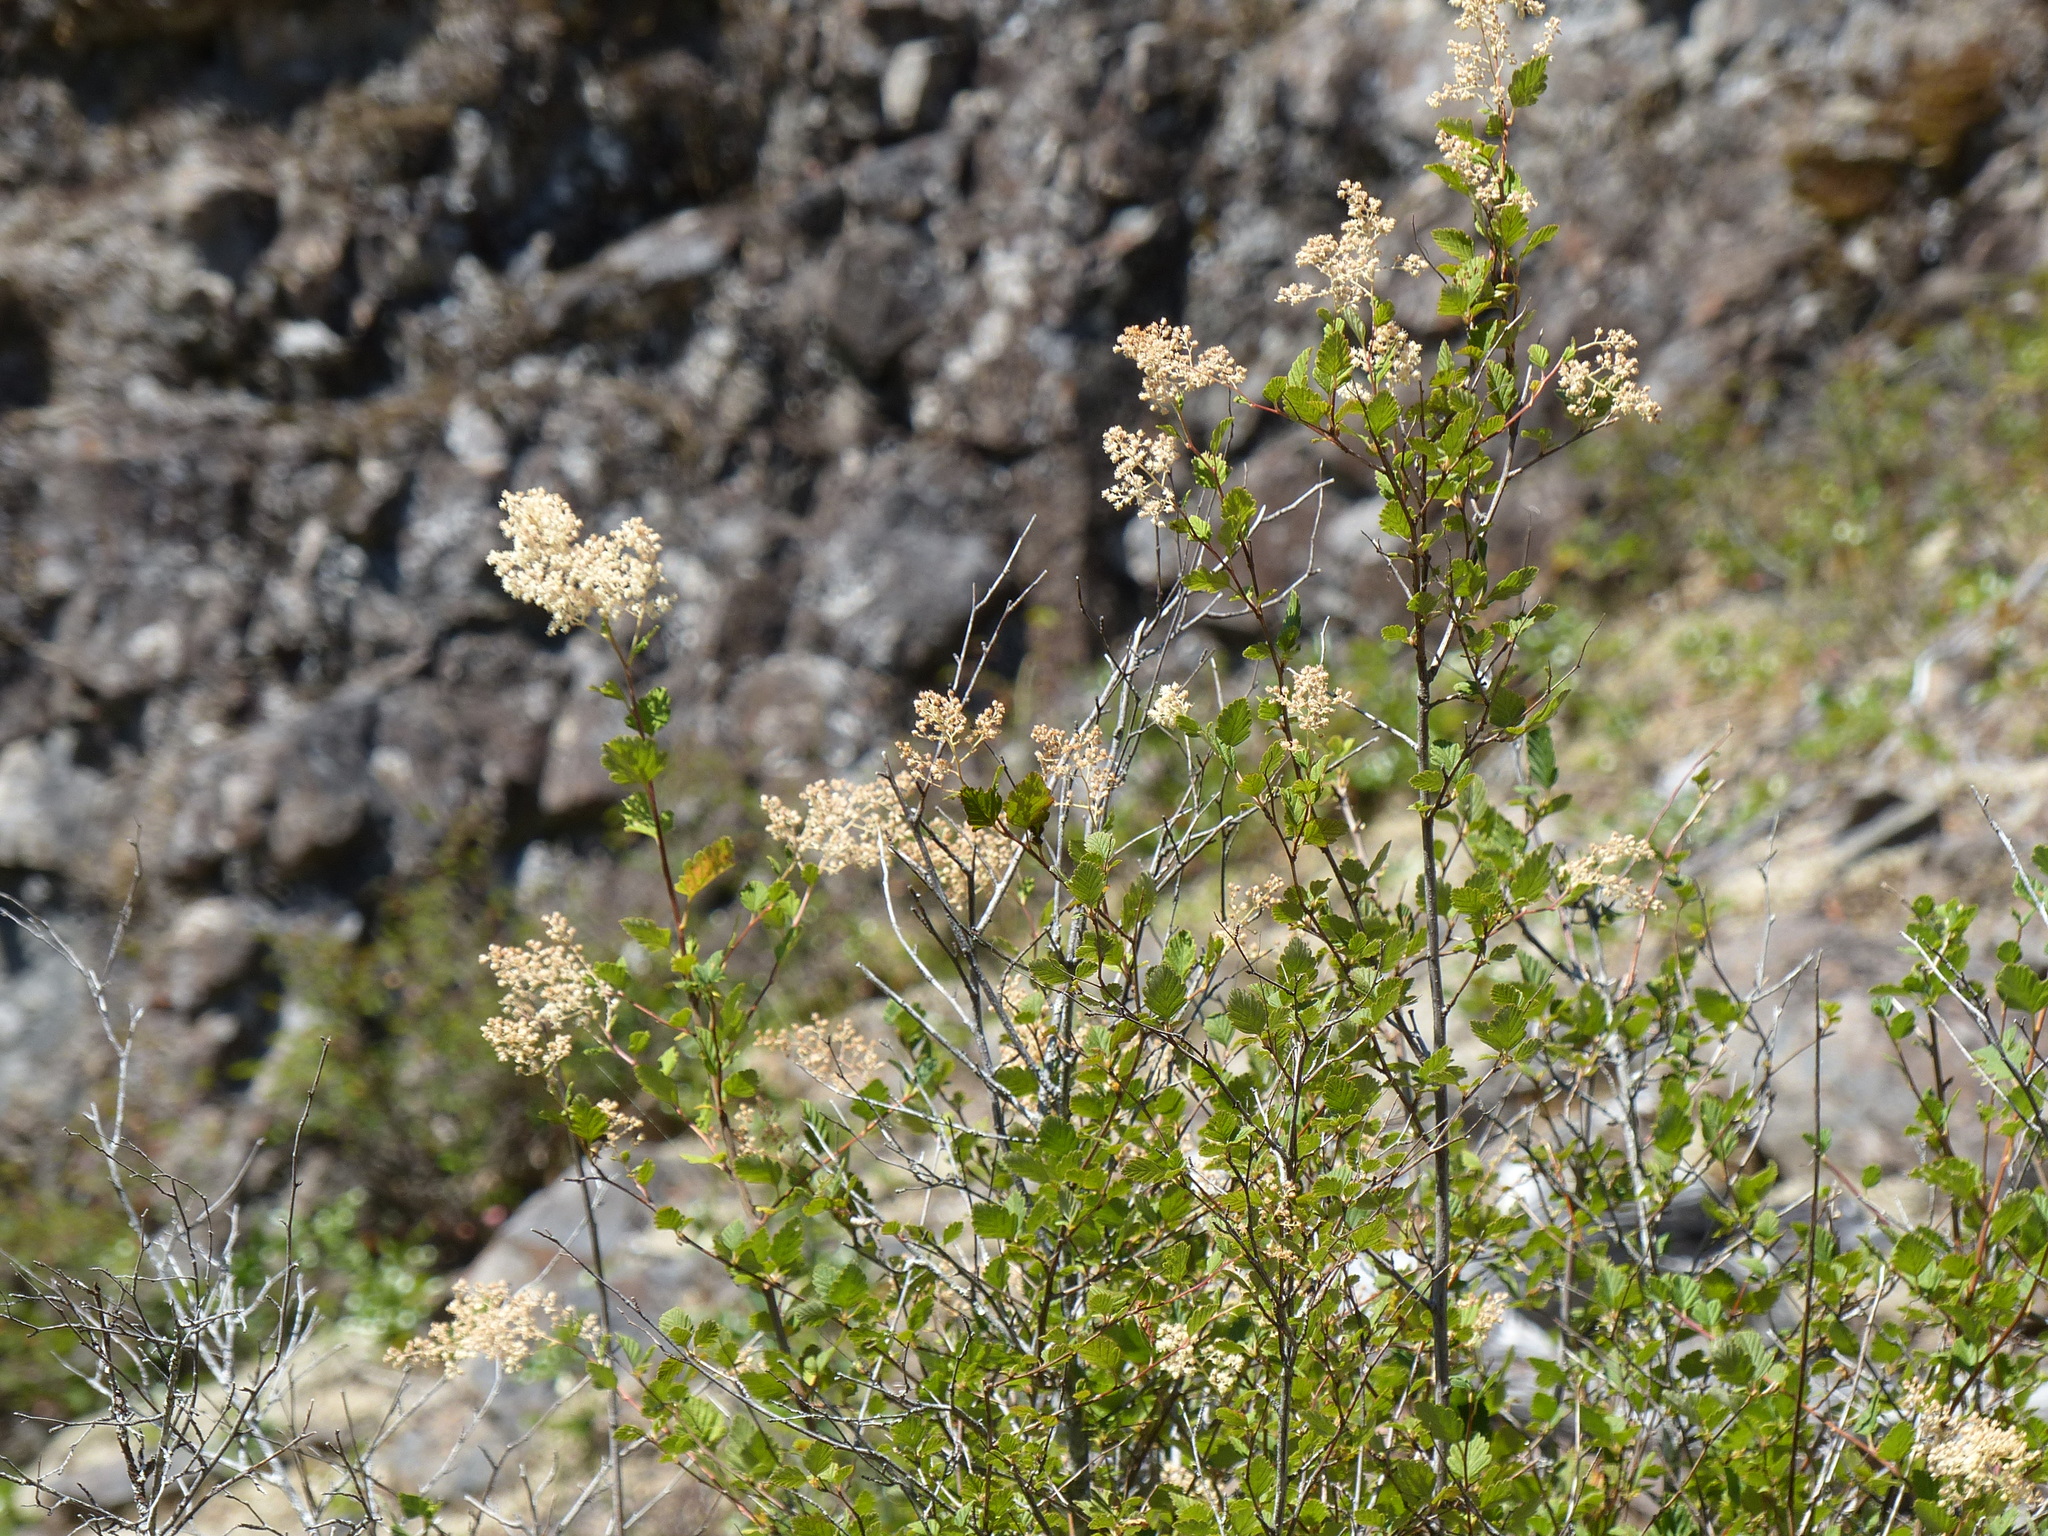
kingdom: Plantae
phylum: Tracheophyta
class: Magnoliopsida
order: Rosales
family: Rosaceae
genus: Holodiscus
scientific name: Holodiscus discolor
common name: Oceanspray
